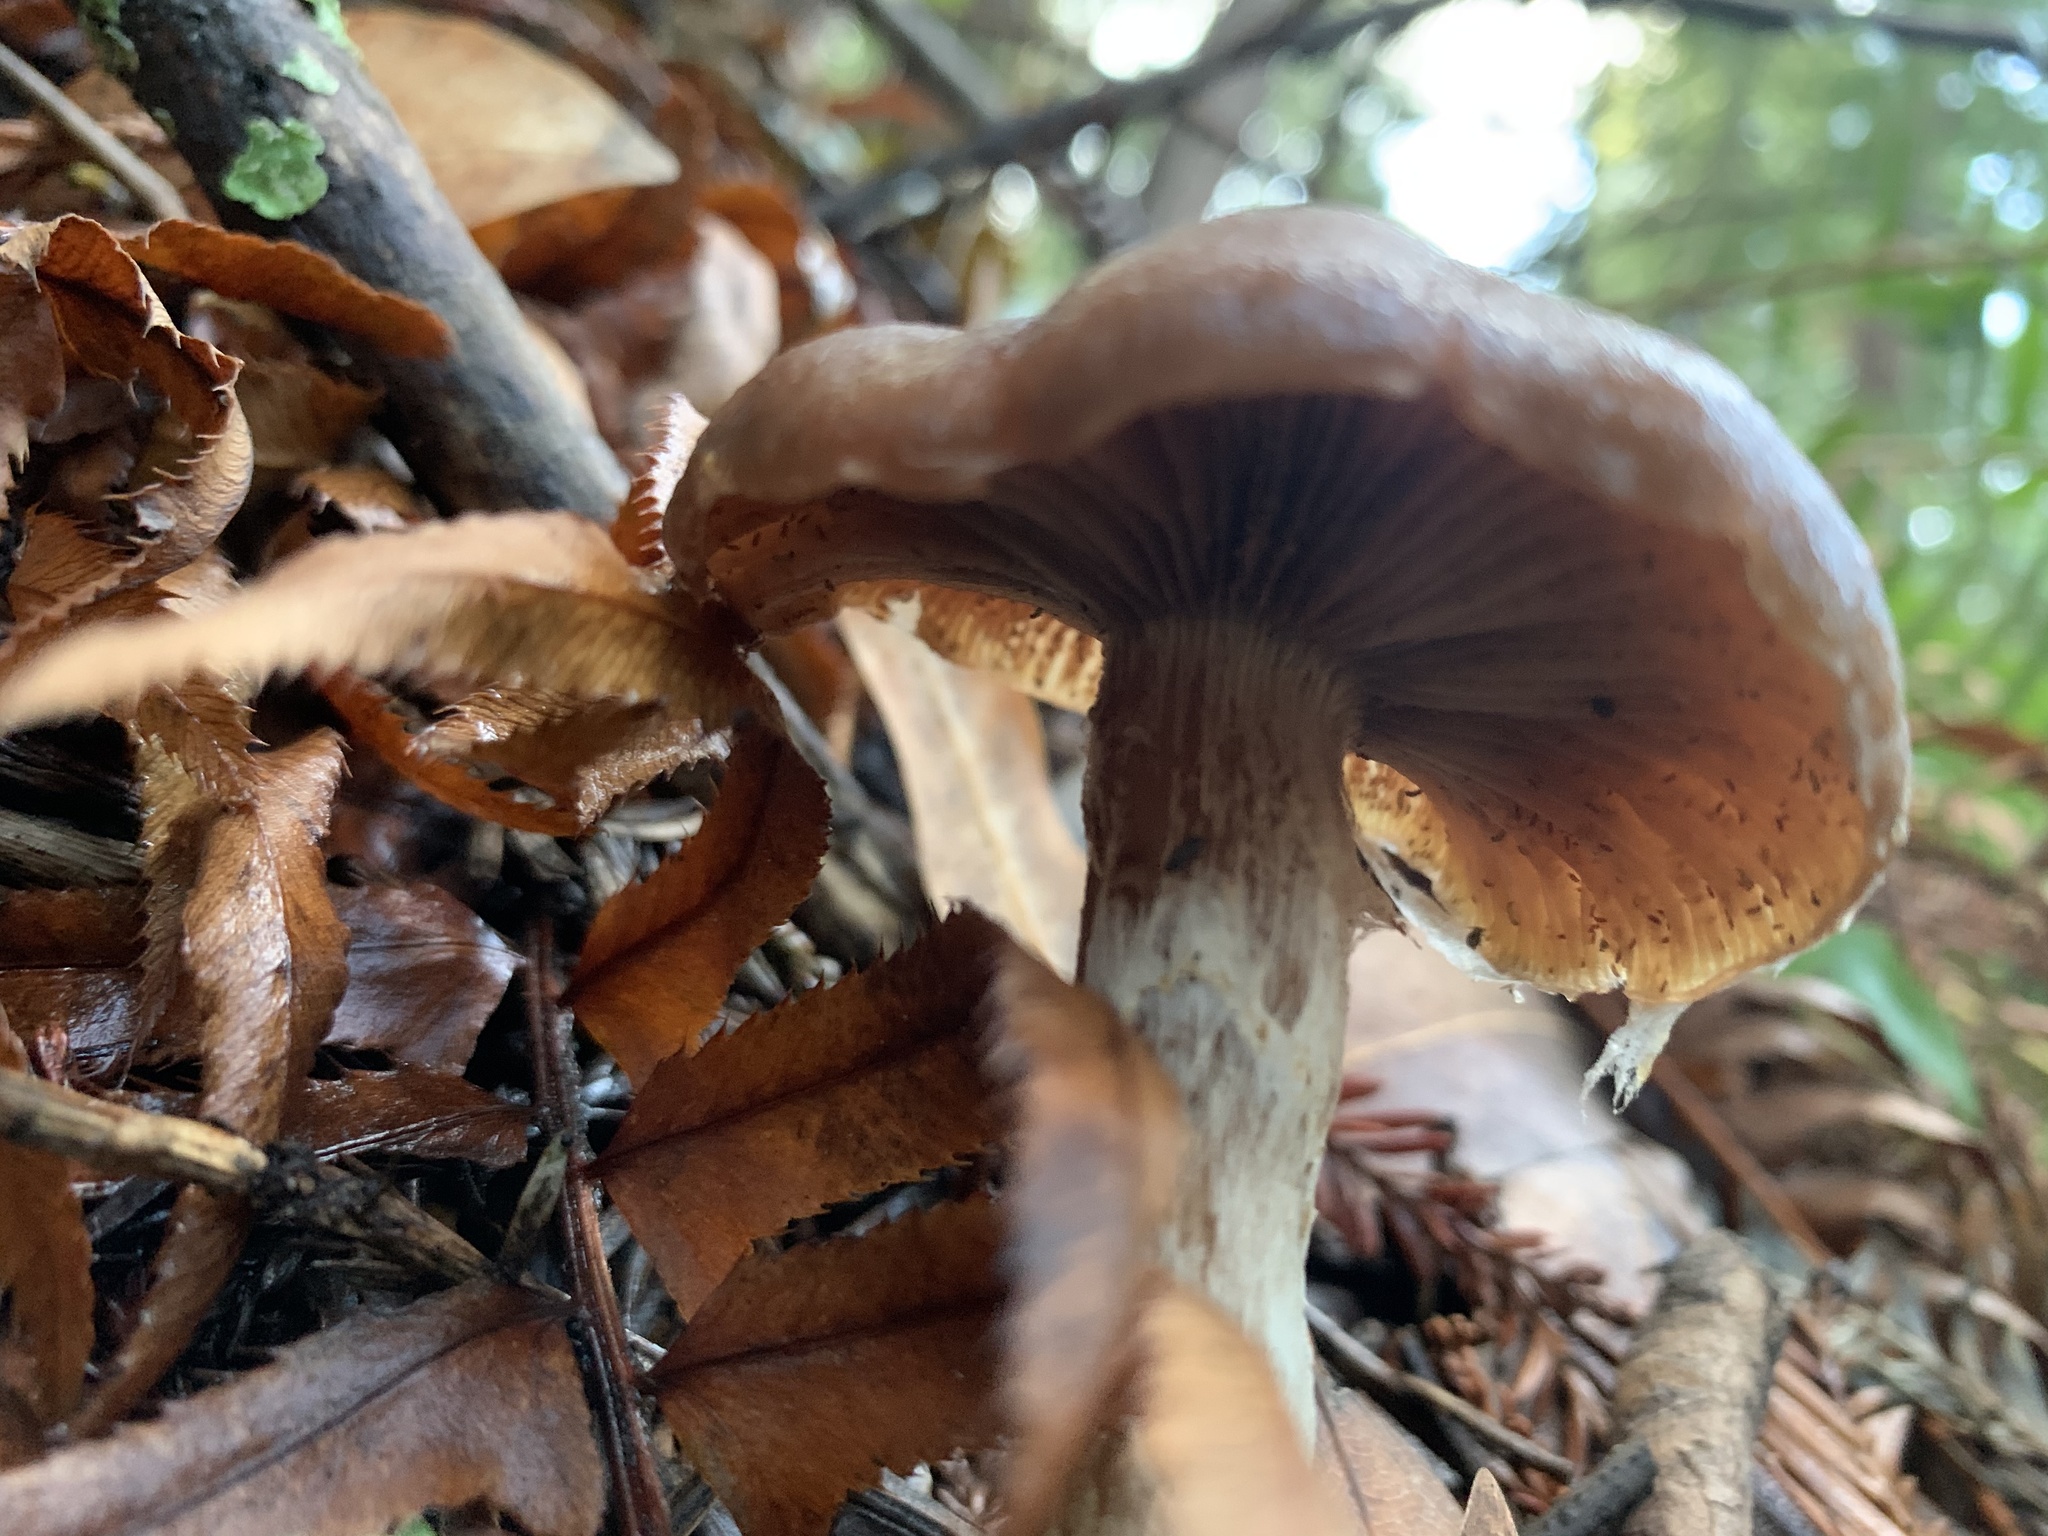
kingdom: Fungi
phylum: Basidiomycota
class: Agaricomycetes
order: Agaricales
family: Physalacriaceae
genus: Armillaria
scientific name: Armillaria sinapina
